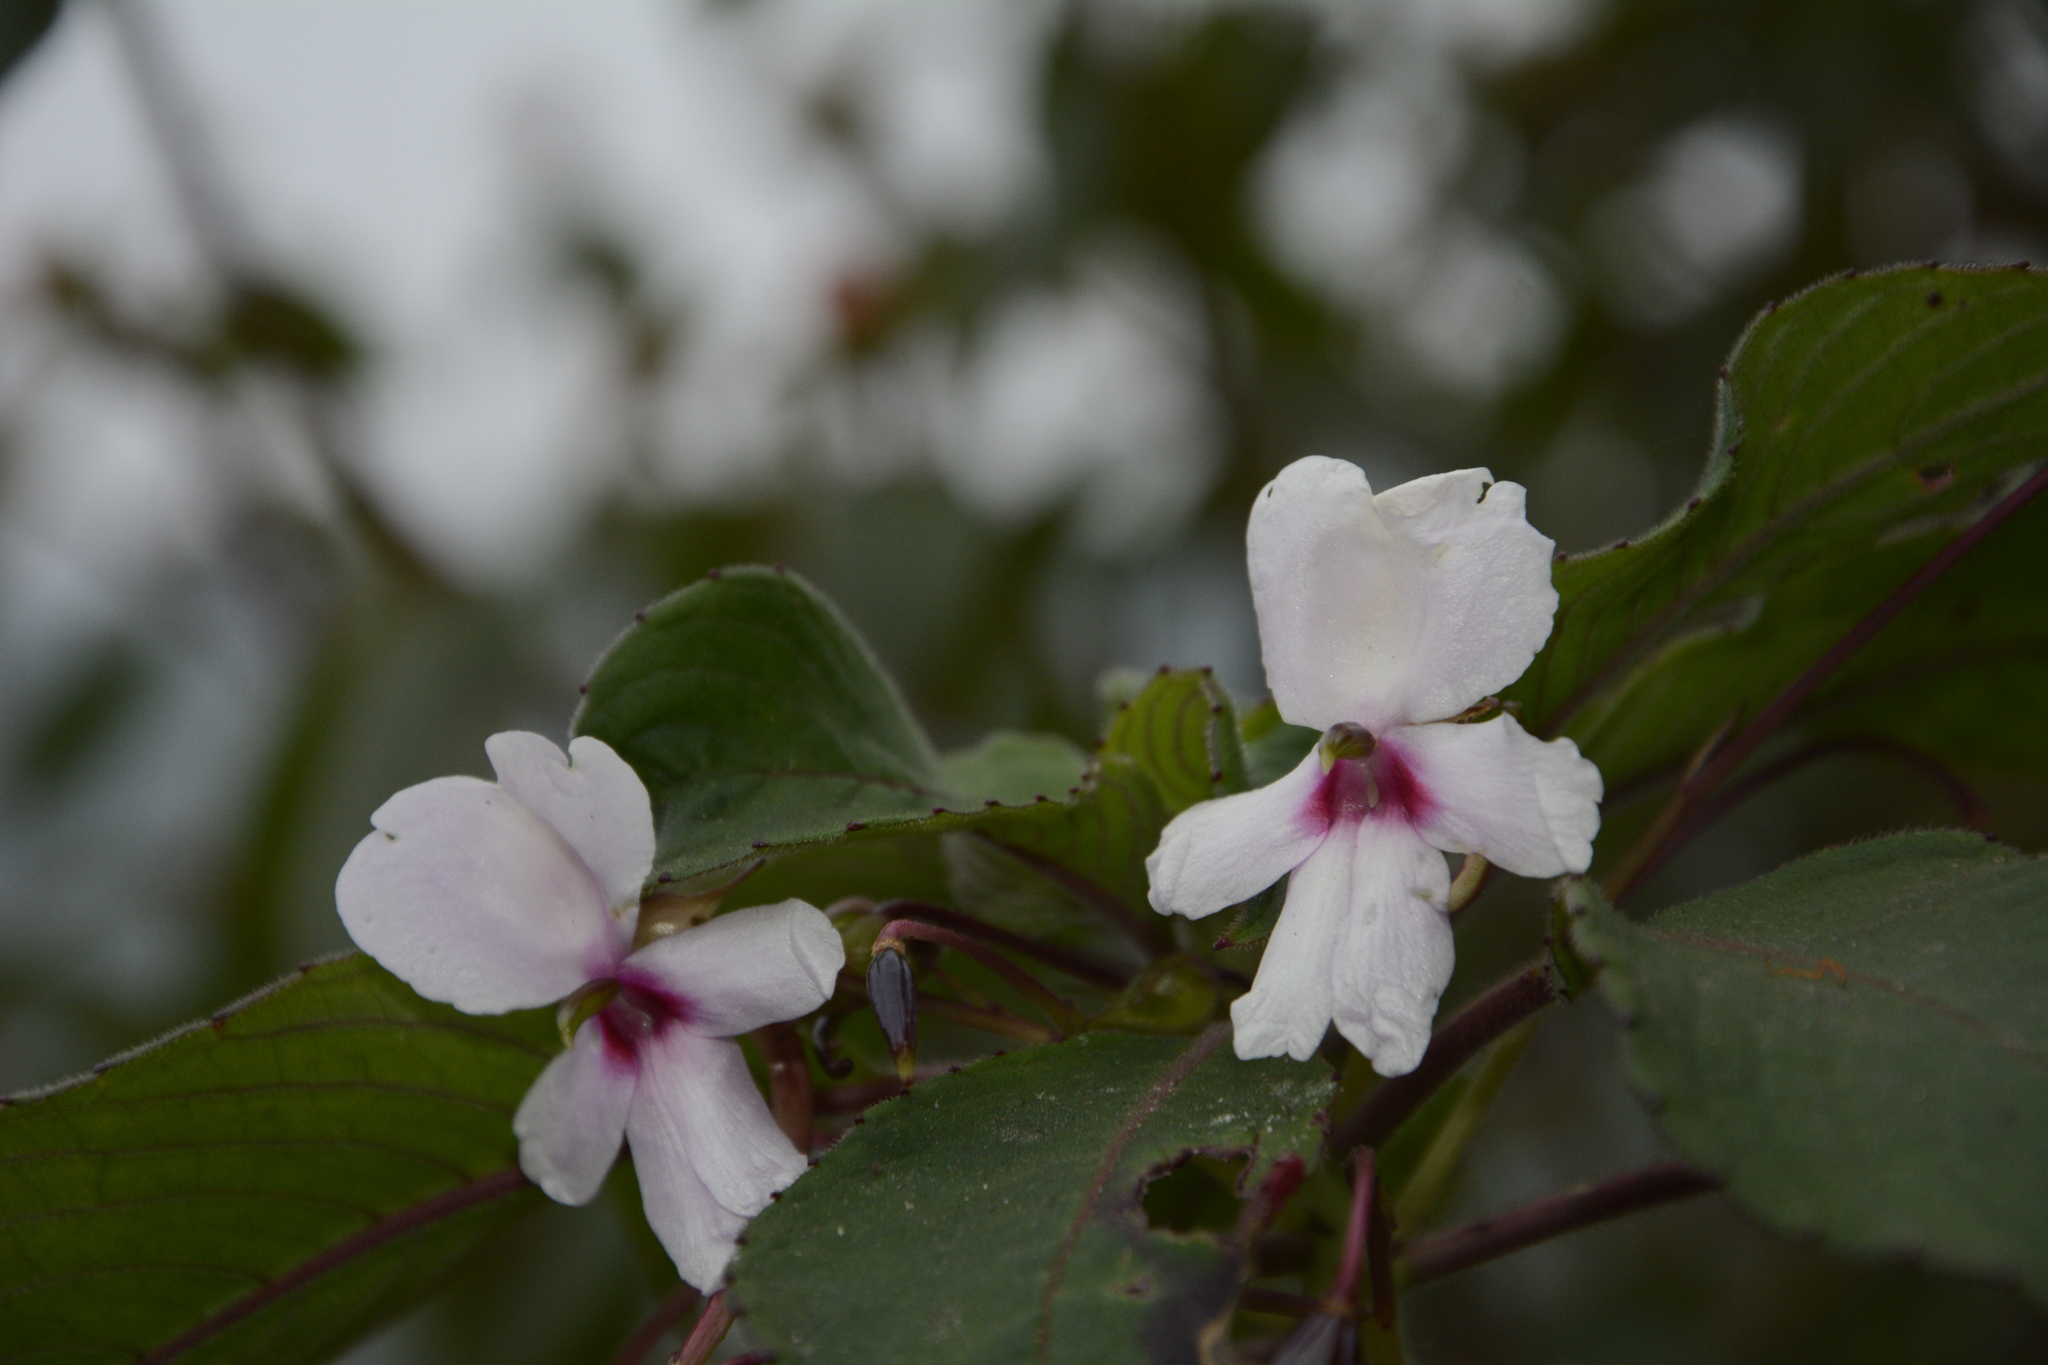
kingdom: Plantae
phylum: Tracheophyta
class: Magnoliopsida
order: Ericales
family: Balsaminaceae
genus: Impatiens
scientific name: Impatiens fruticosa
